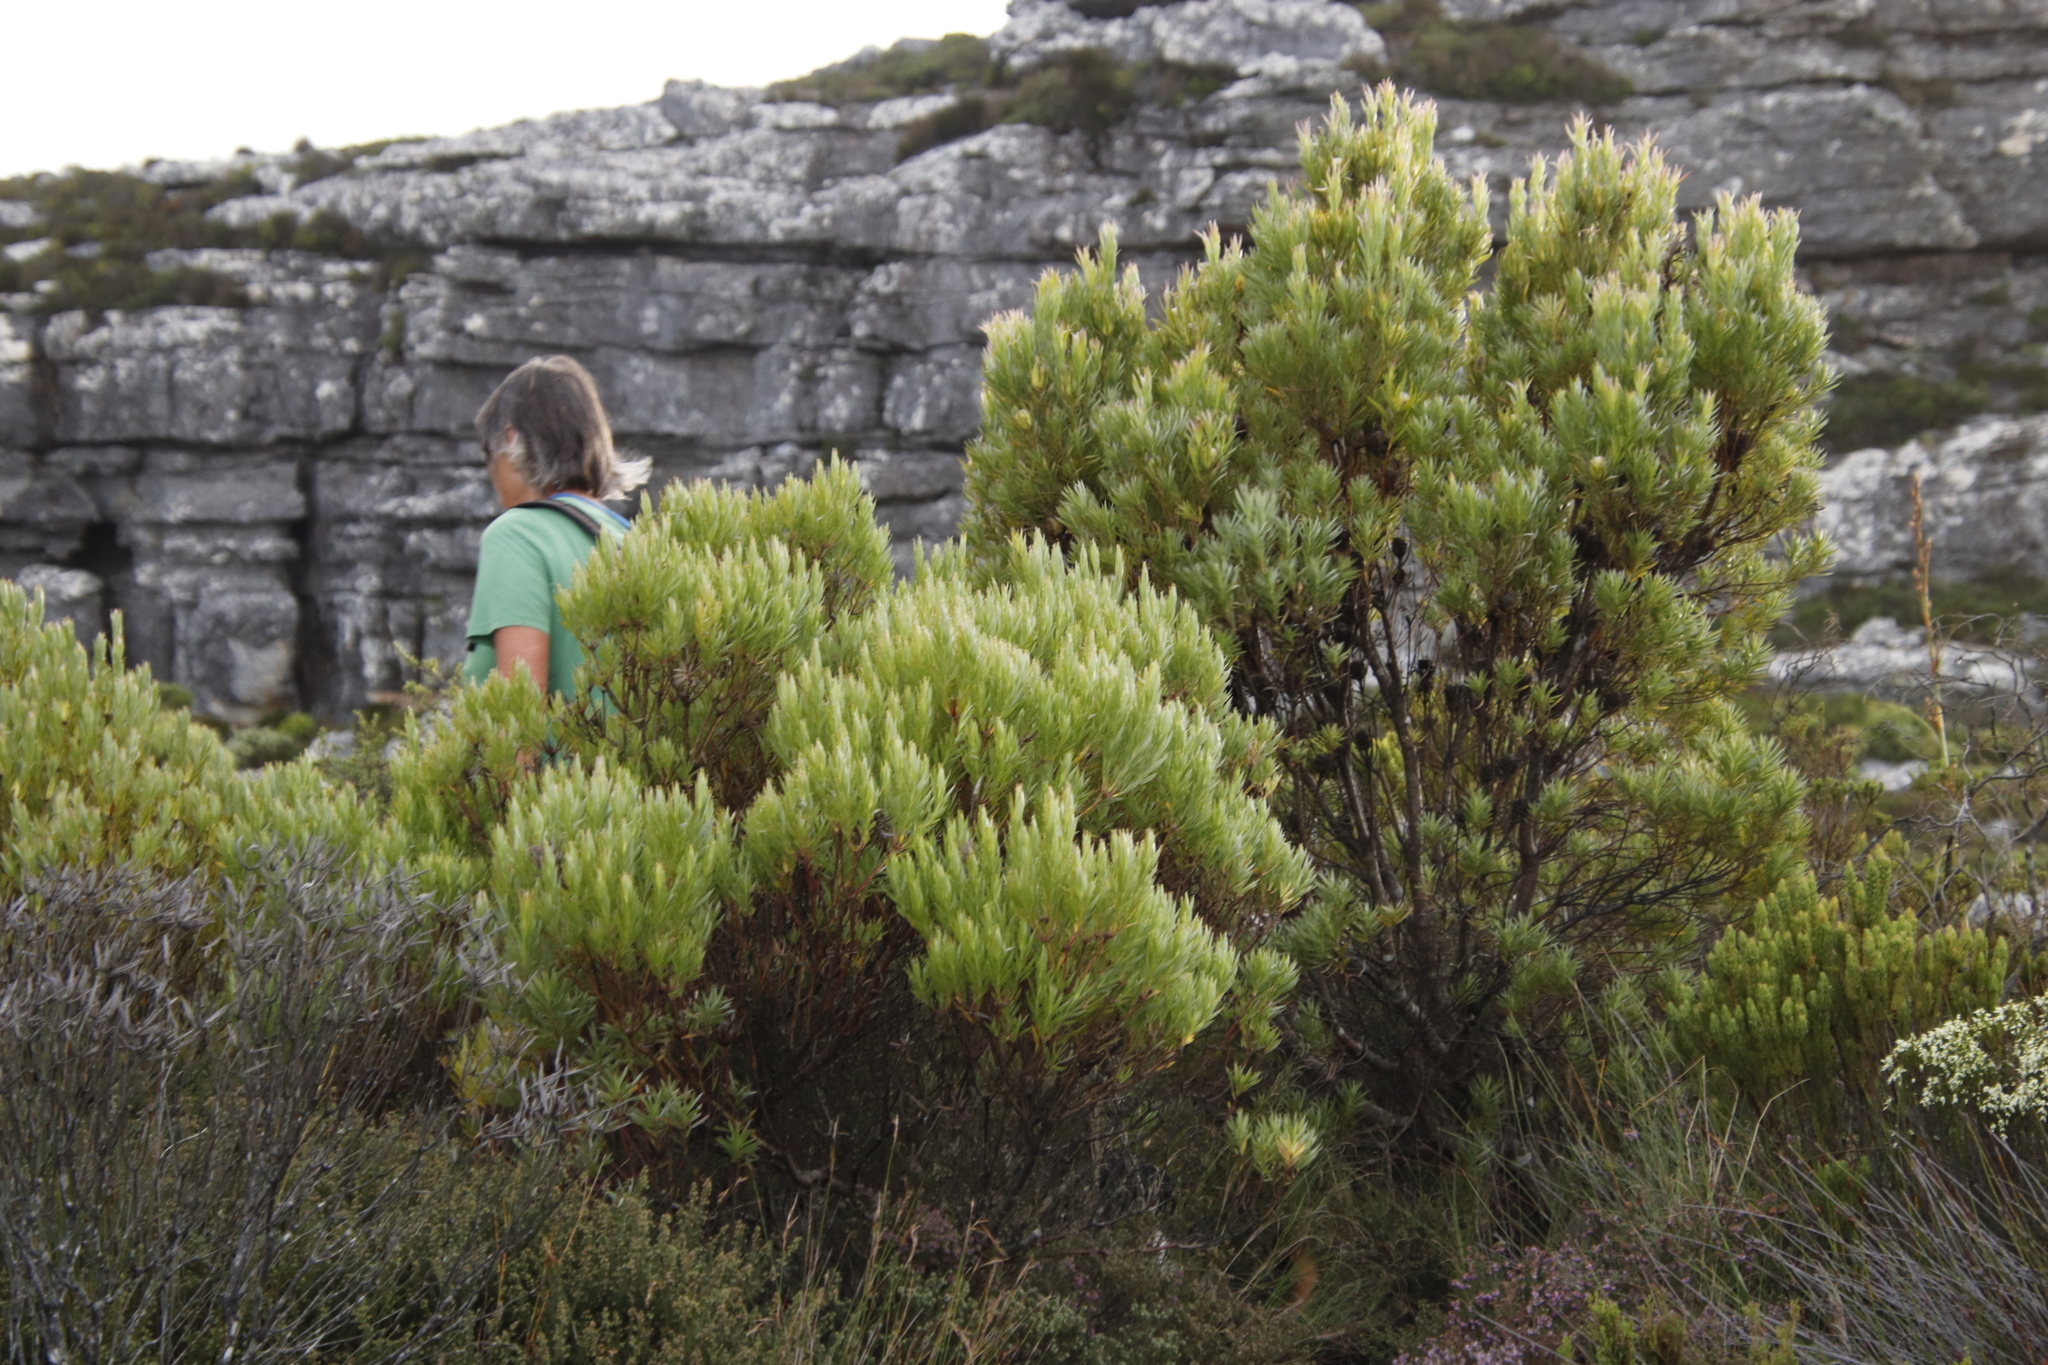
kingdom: Plantae
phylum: Tracheophyta
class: Magnoliopsida
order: Proteales
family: Proteaceae
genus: Leucadendron
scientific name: Leucadendron xanthoconus
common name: Sickle-leaf conebush
